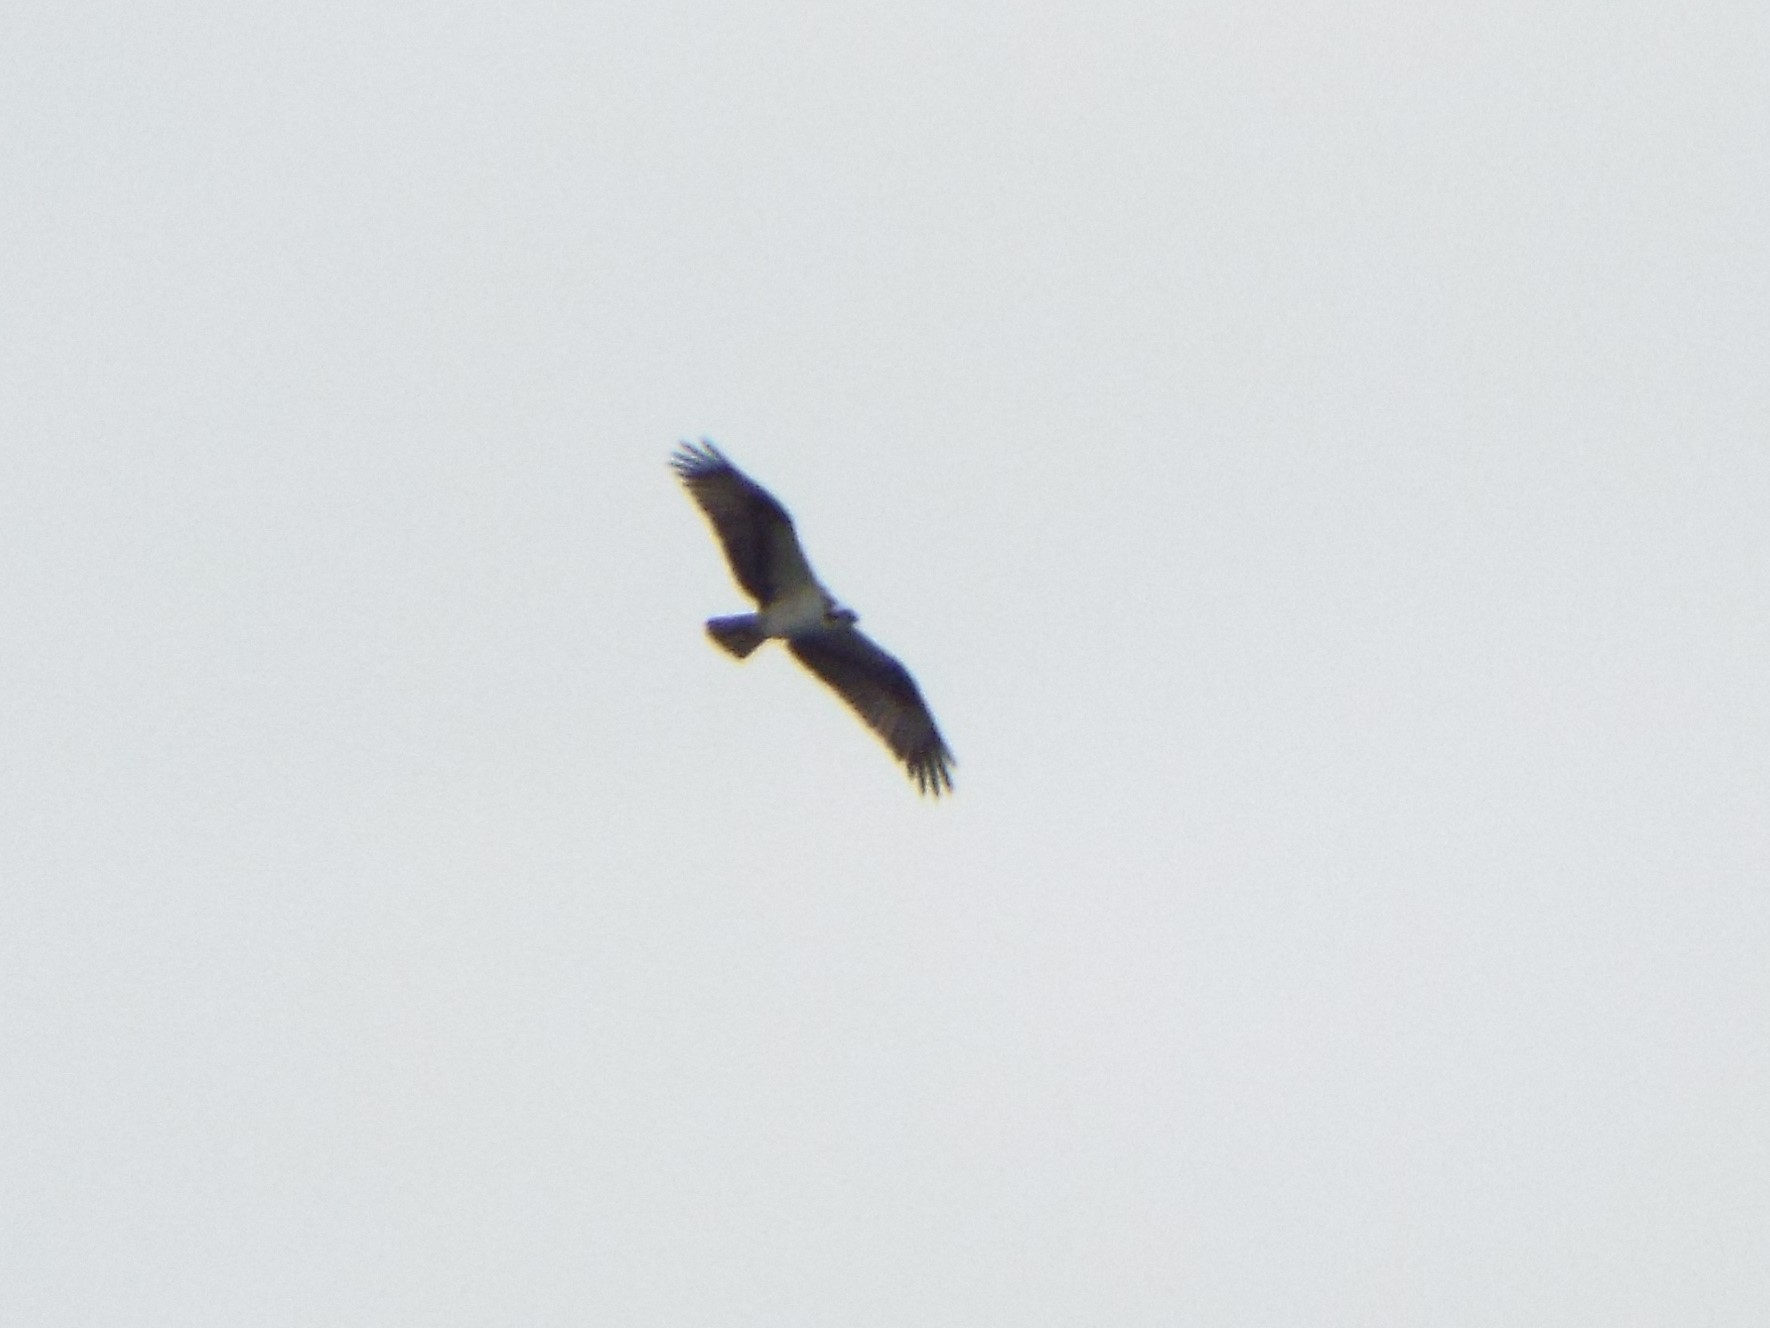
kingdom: Animalia
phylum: Chordata
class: Aves
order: Accipitriformes
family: Pandionidae
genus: Pandion
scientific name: Pandion haliaetus
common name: Osprey
